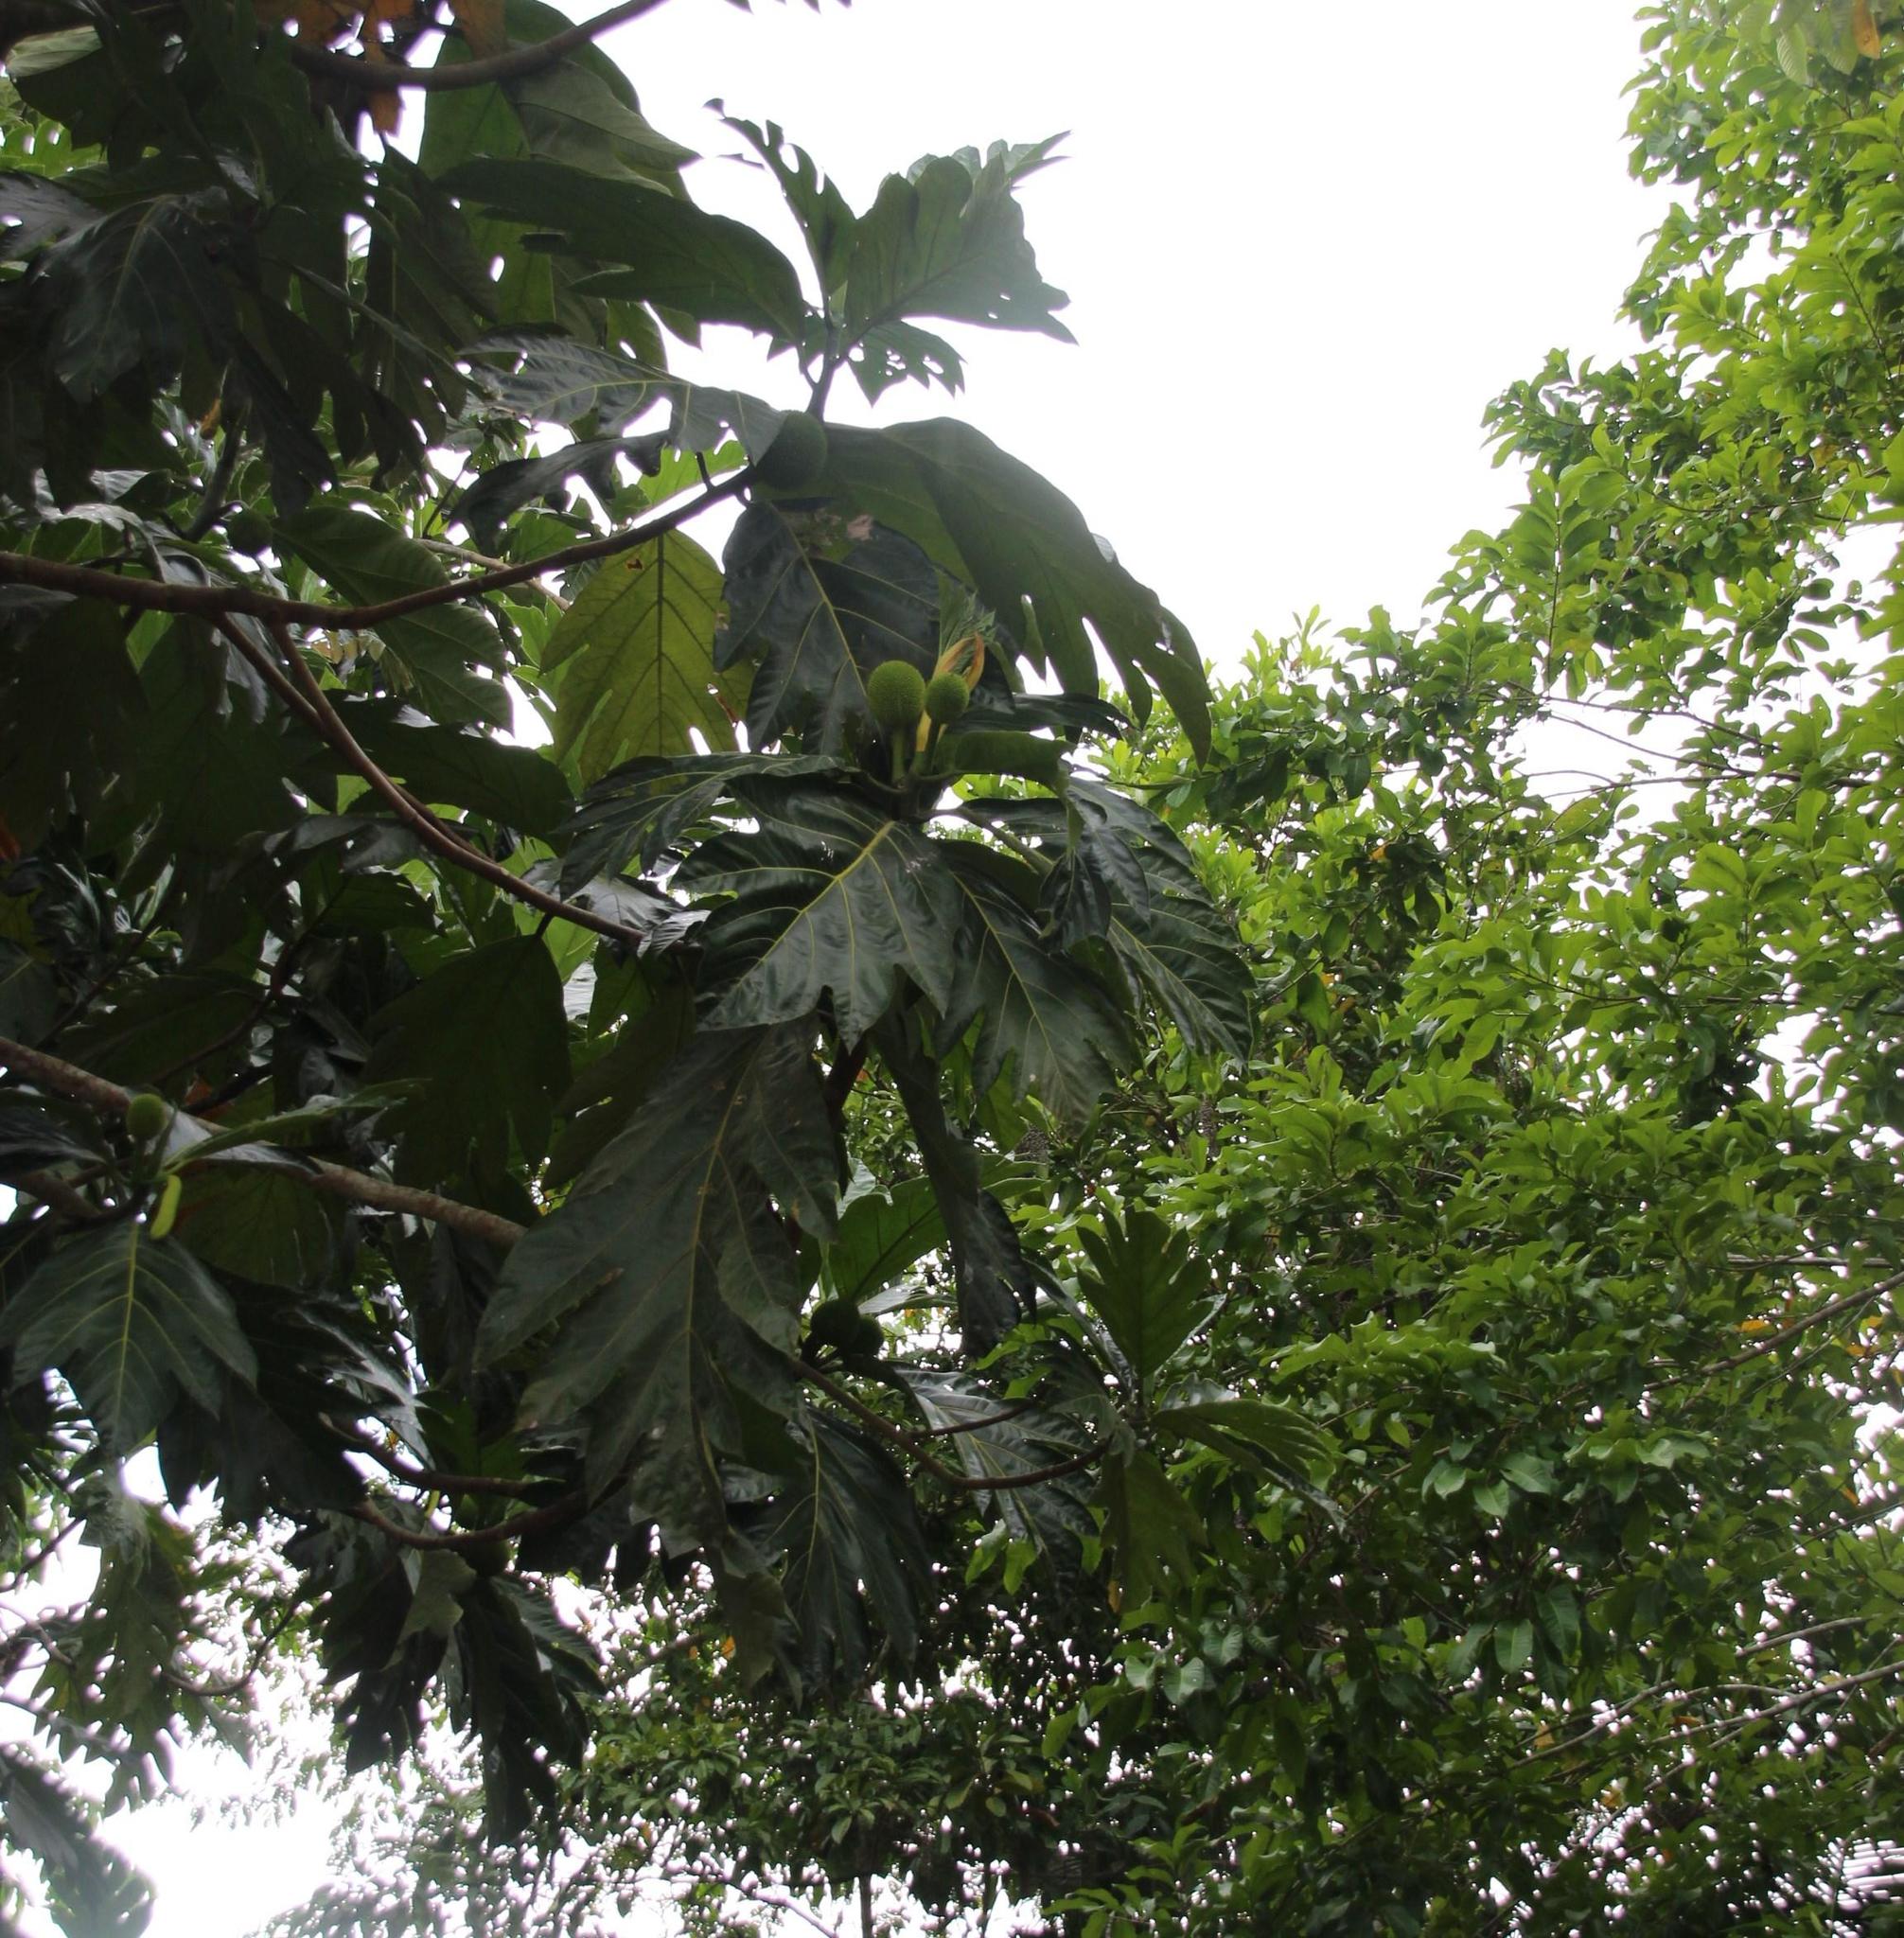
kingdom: Plantae
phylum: Tracheophyta
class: Magnoliopsida
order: Rosales
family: Moraceae
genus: Artocarpus
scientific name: Artocarpus altilis
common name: Breadfruit
